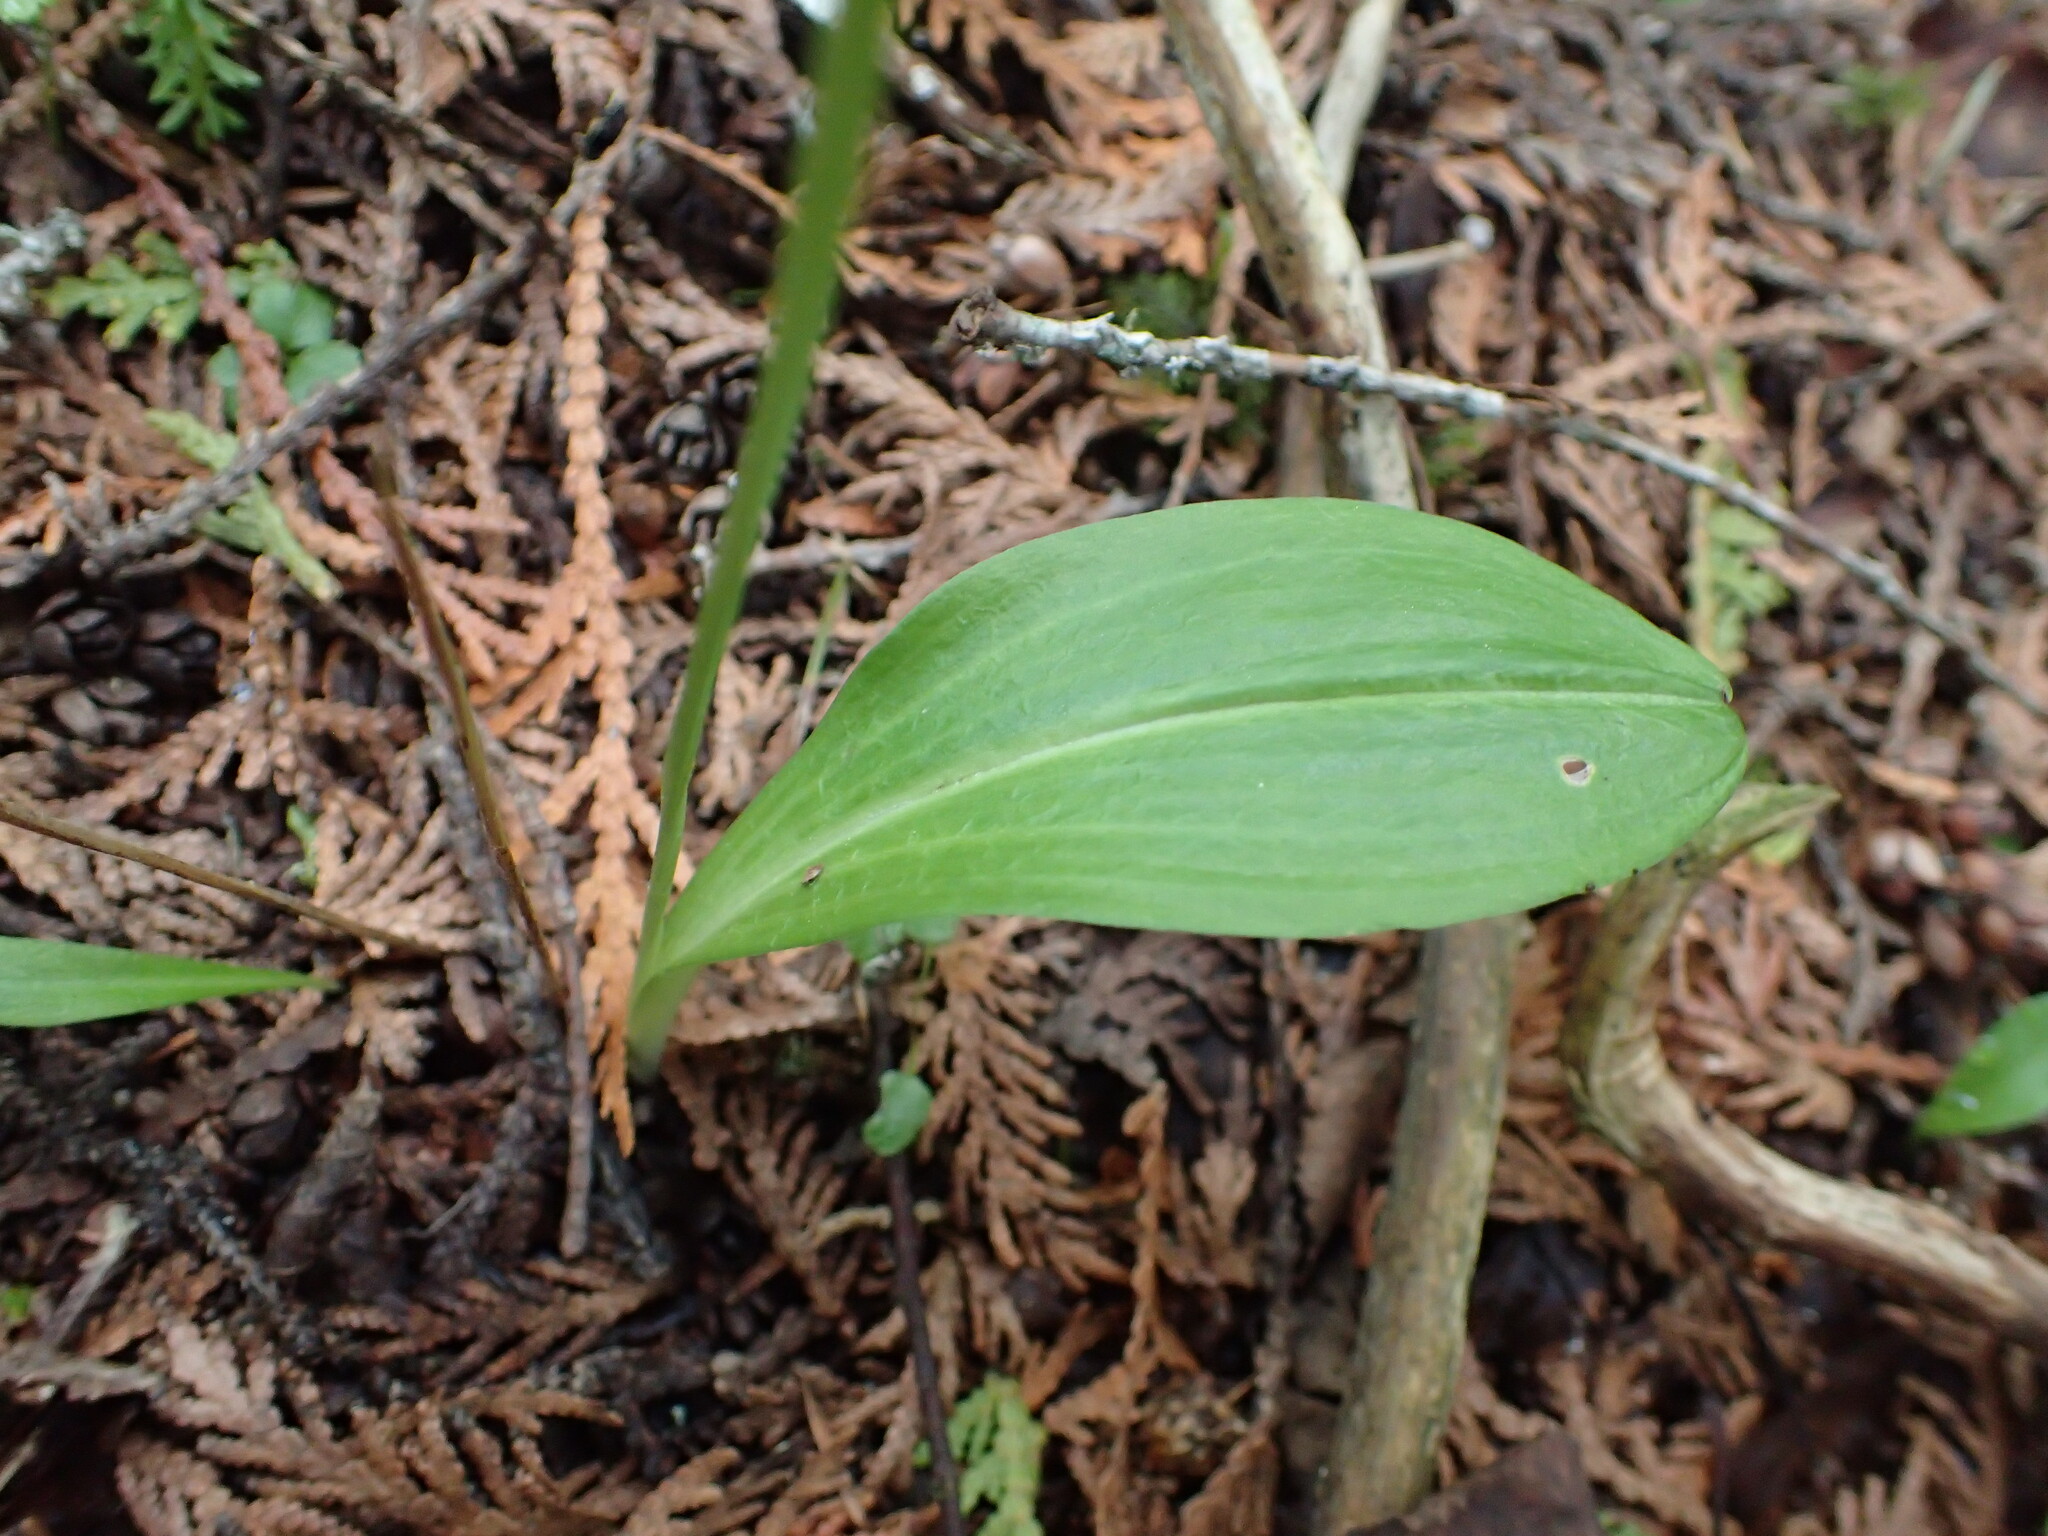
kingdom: Plantae
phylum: Tracheophyta
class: Liliopsida
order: Asparagales
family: Orchidaceae
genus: Platanthera
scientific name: Platanthera obtusata
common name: Blunt bog orchid
